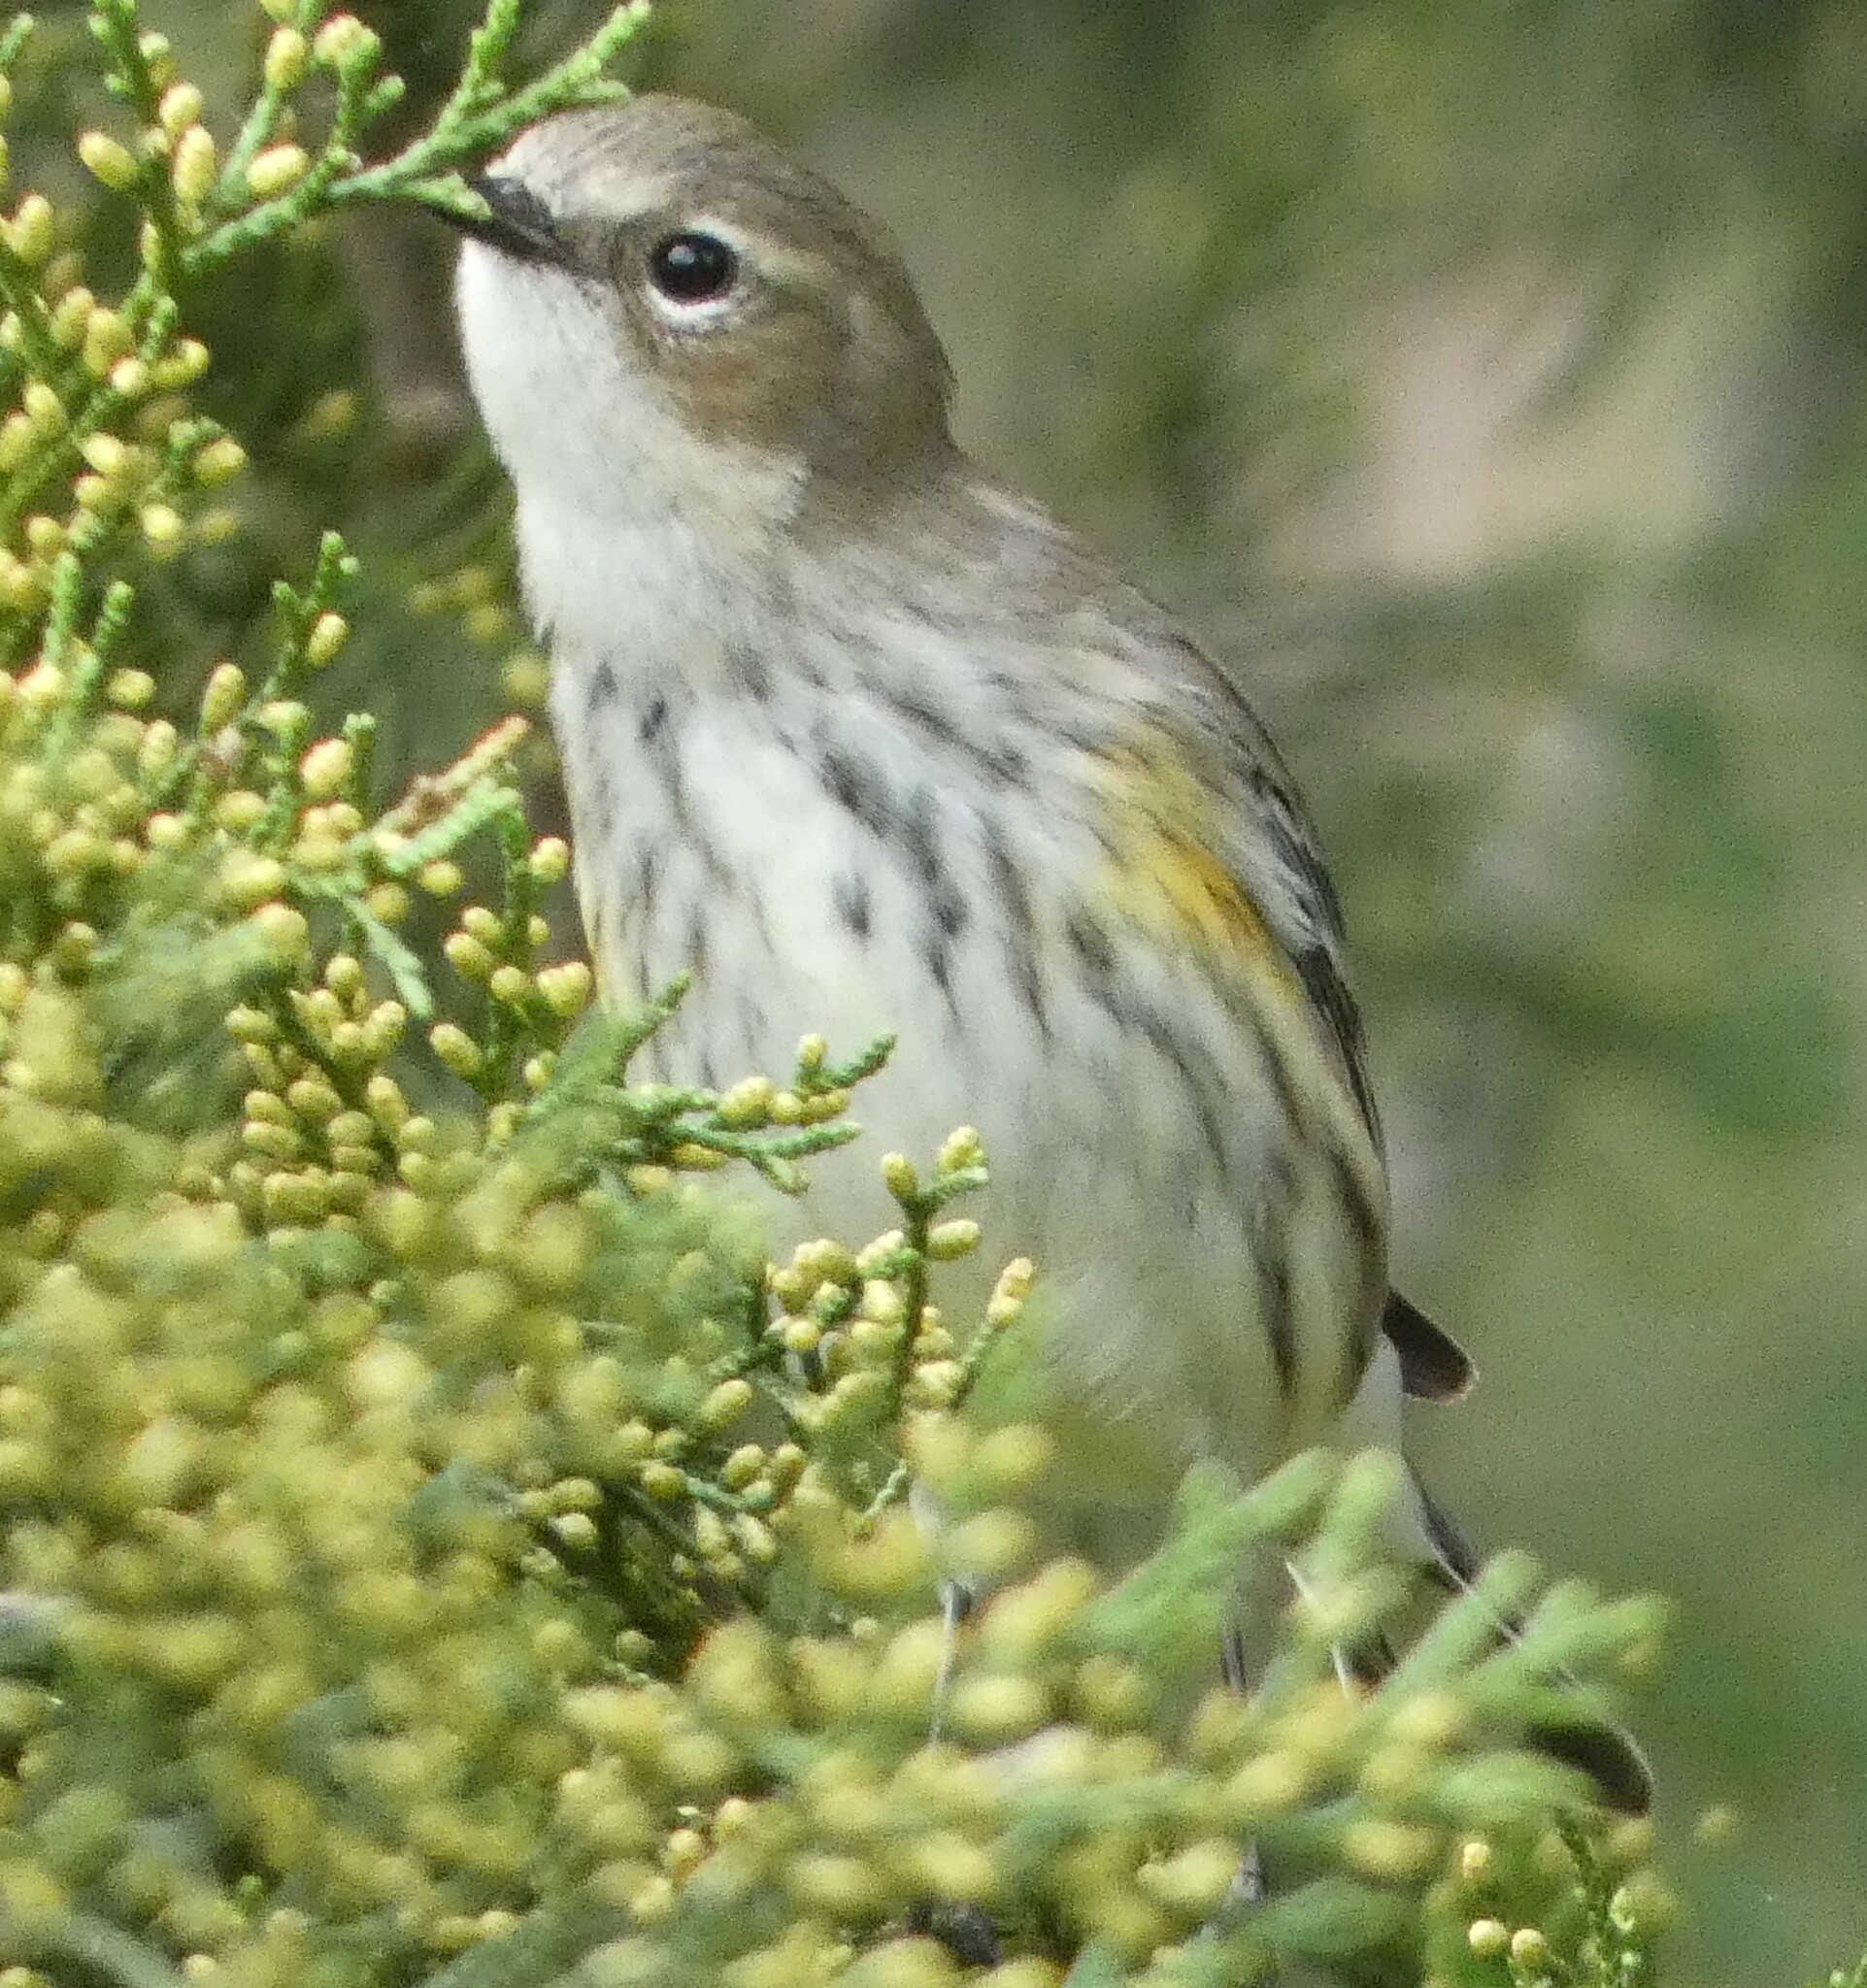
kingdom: Animalia
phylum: Chordata
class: Aves
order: Passeriformes
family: Parulidae
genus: Setophaga
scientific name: Setophaga coronata
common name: Myrtle warbler
